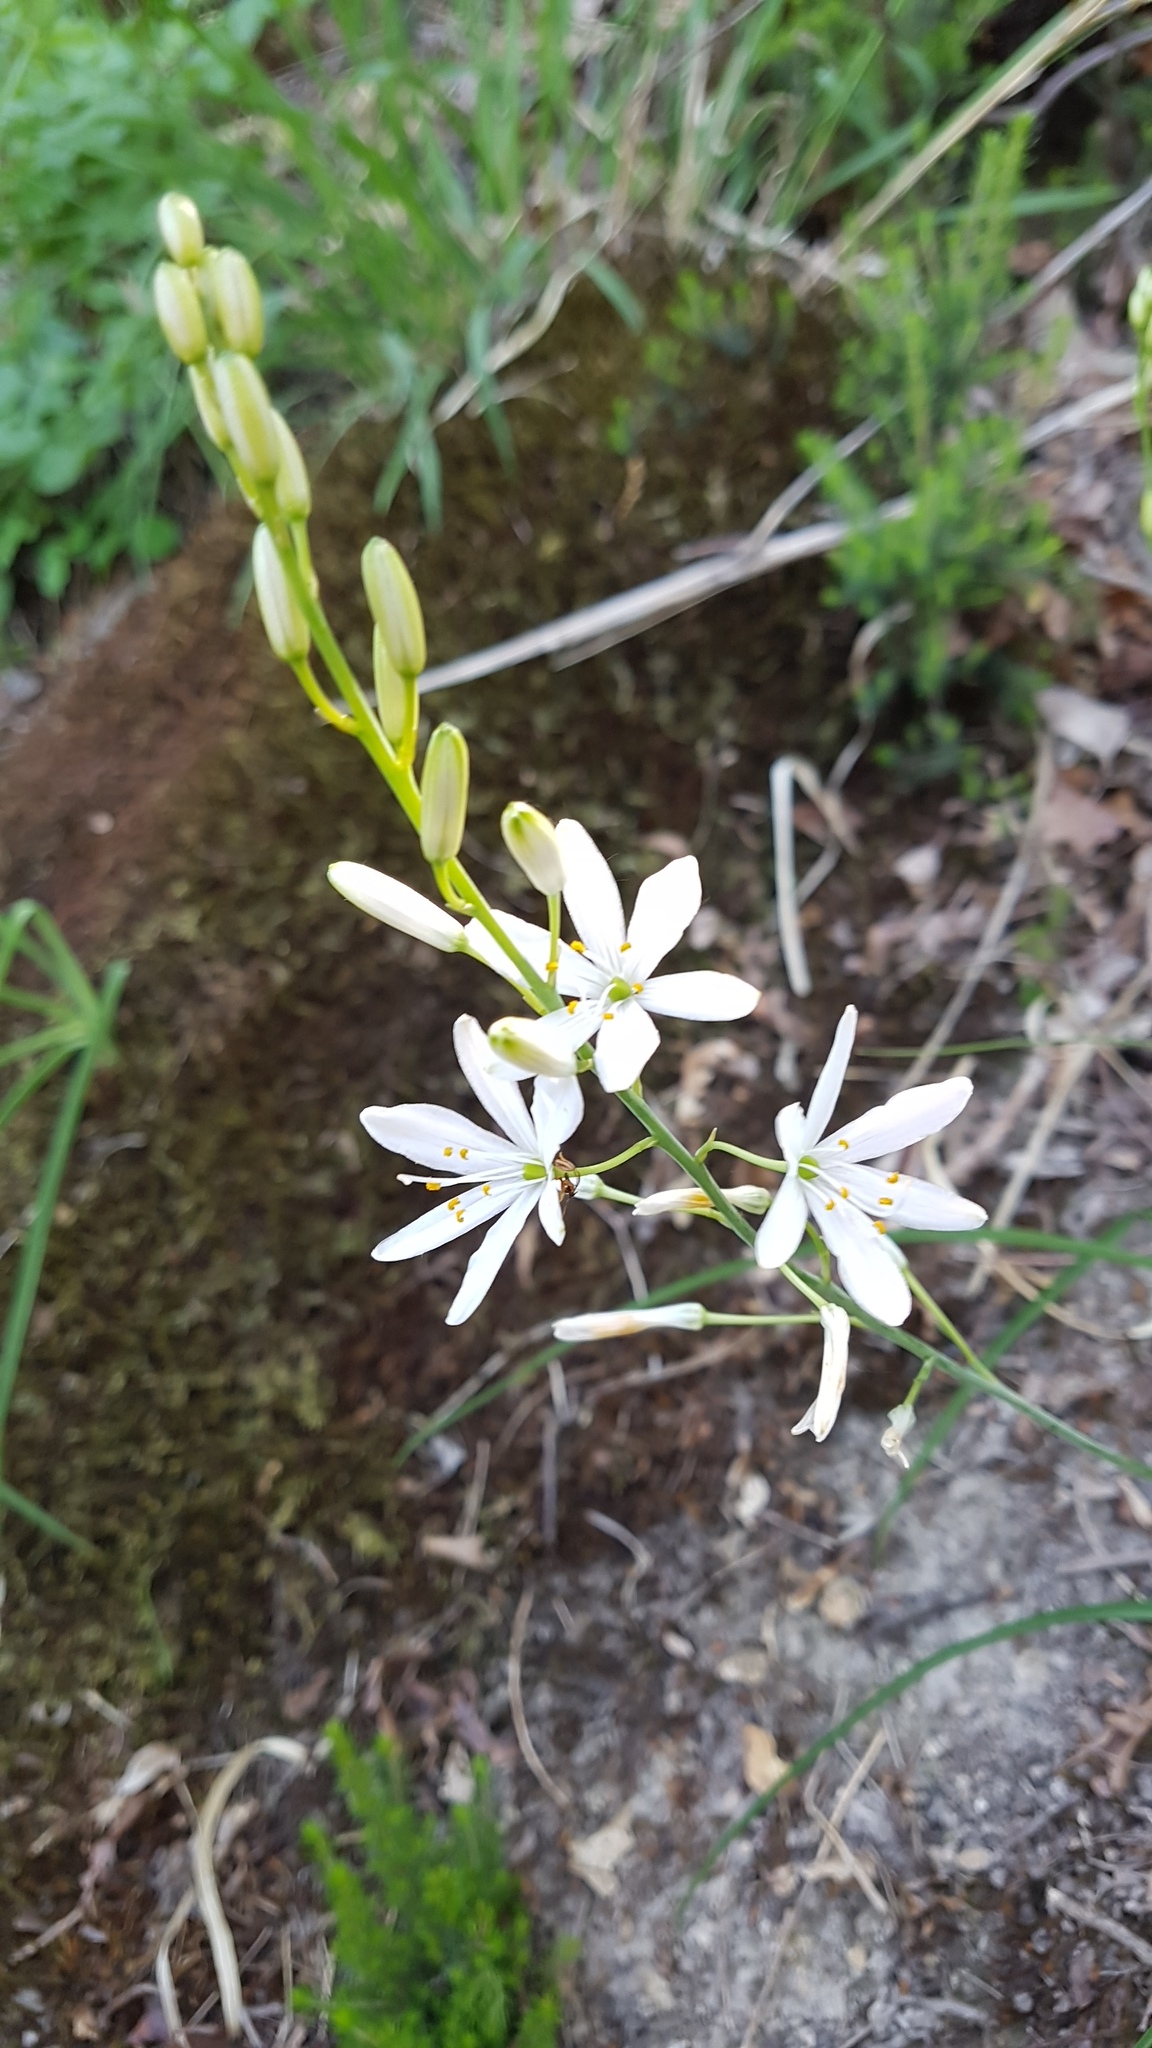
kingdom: Plantae
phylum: Tracheophyta
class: Liliopsida
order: Asparagales
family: Asparagaceae
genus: Anthericum
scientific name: Anthericum liliago
